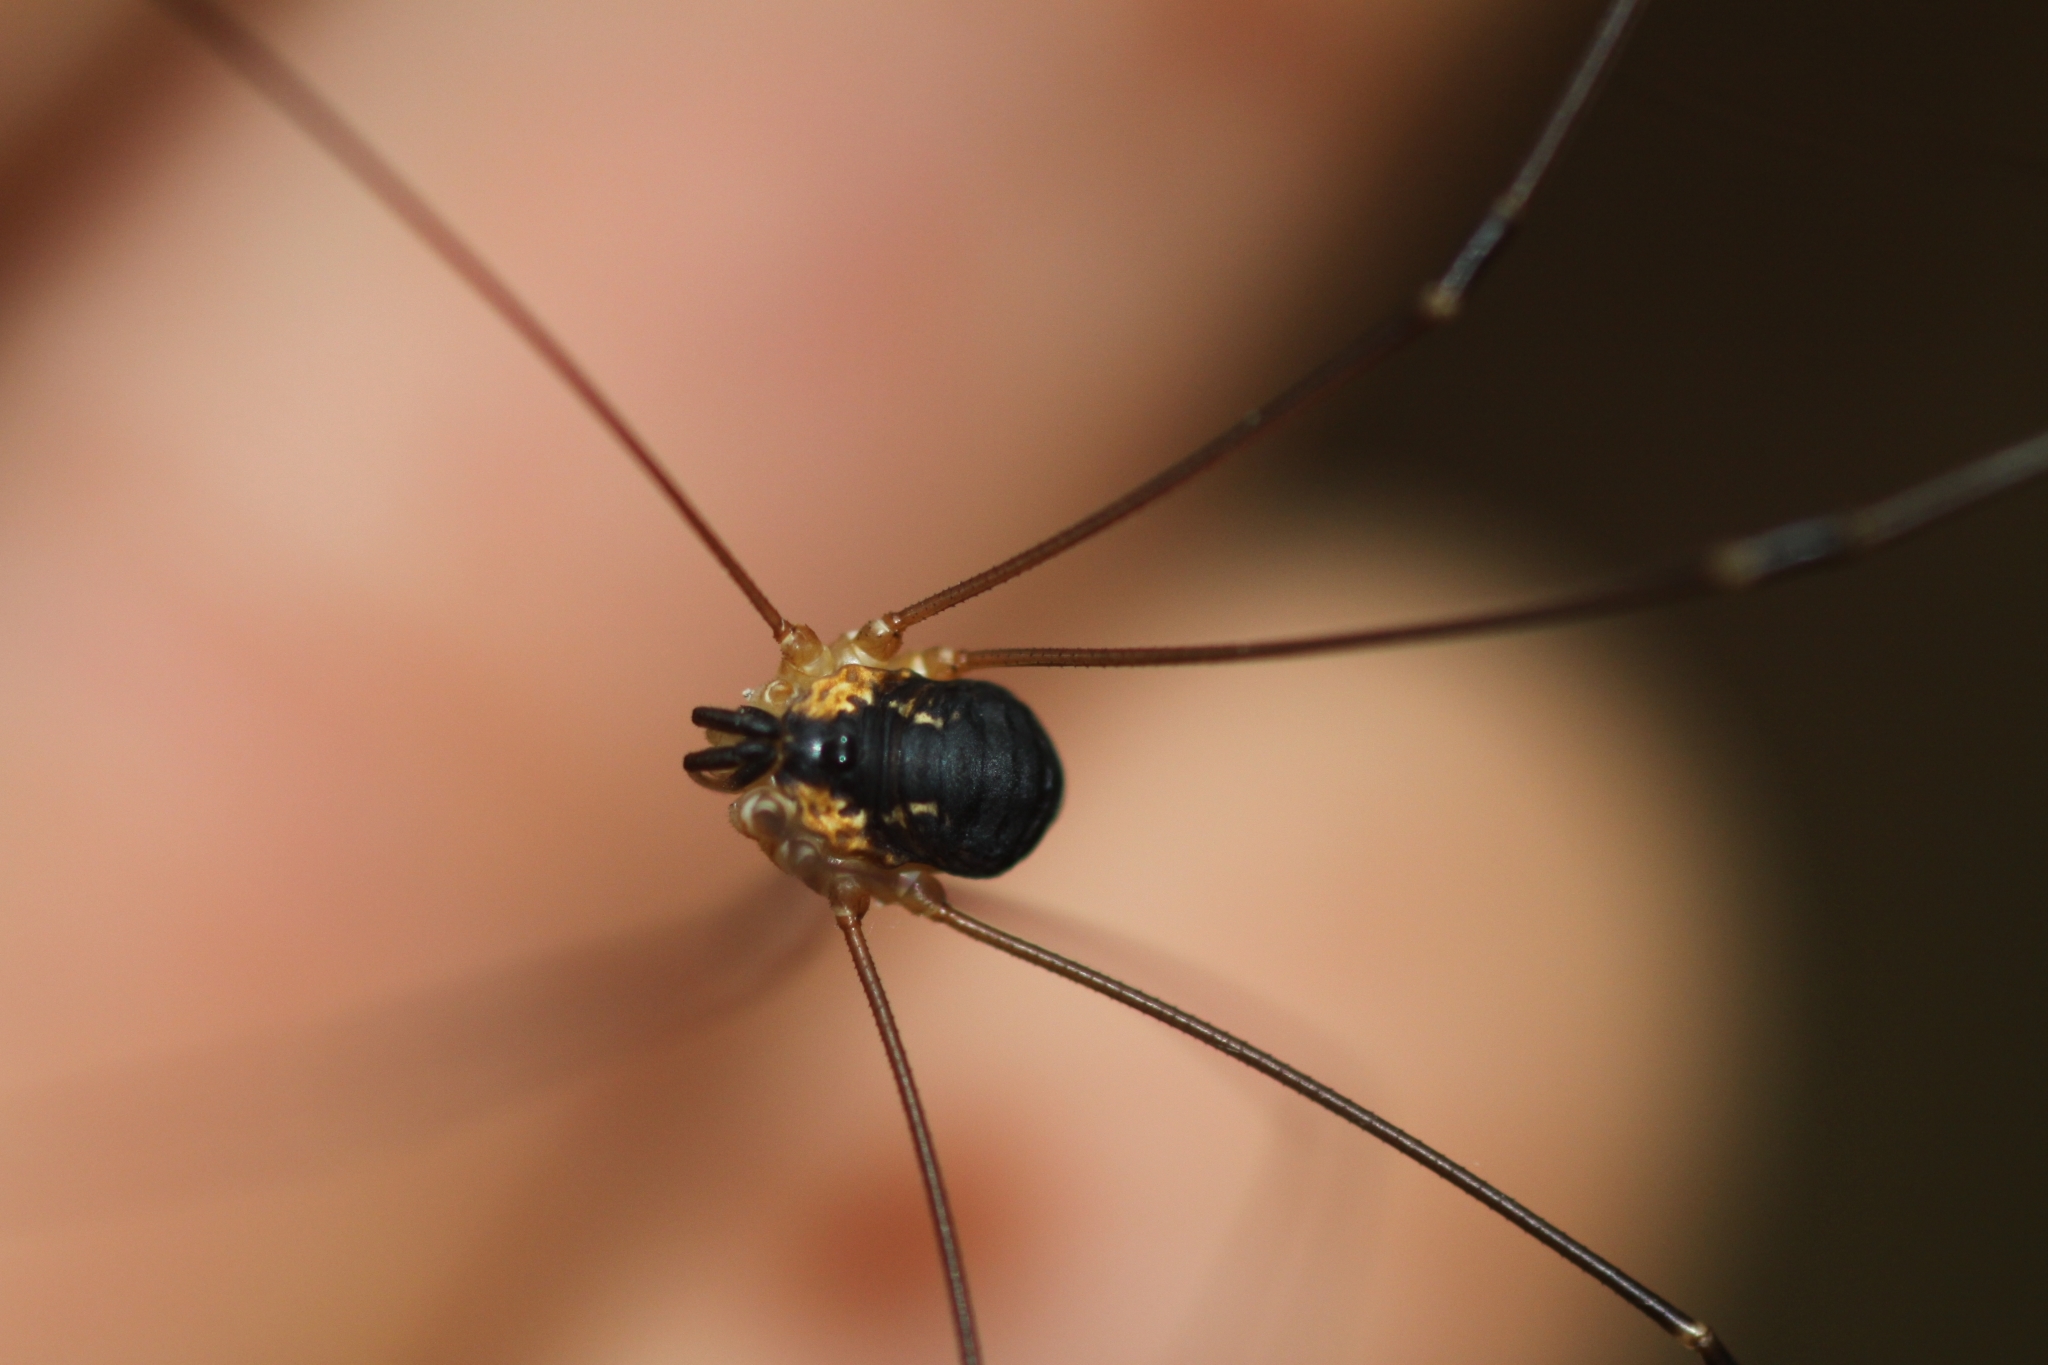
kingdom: Animalia
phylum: Arthropoda
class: Arachnida
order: Opiliones
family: Sclerosomatidae
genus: Leiobunum
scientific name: Leiobunum rupestre
